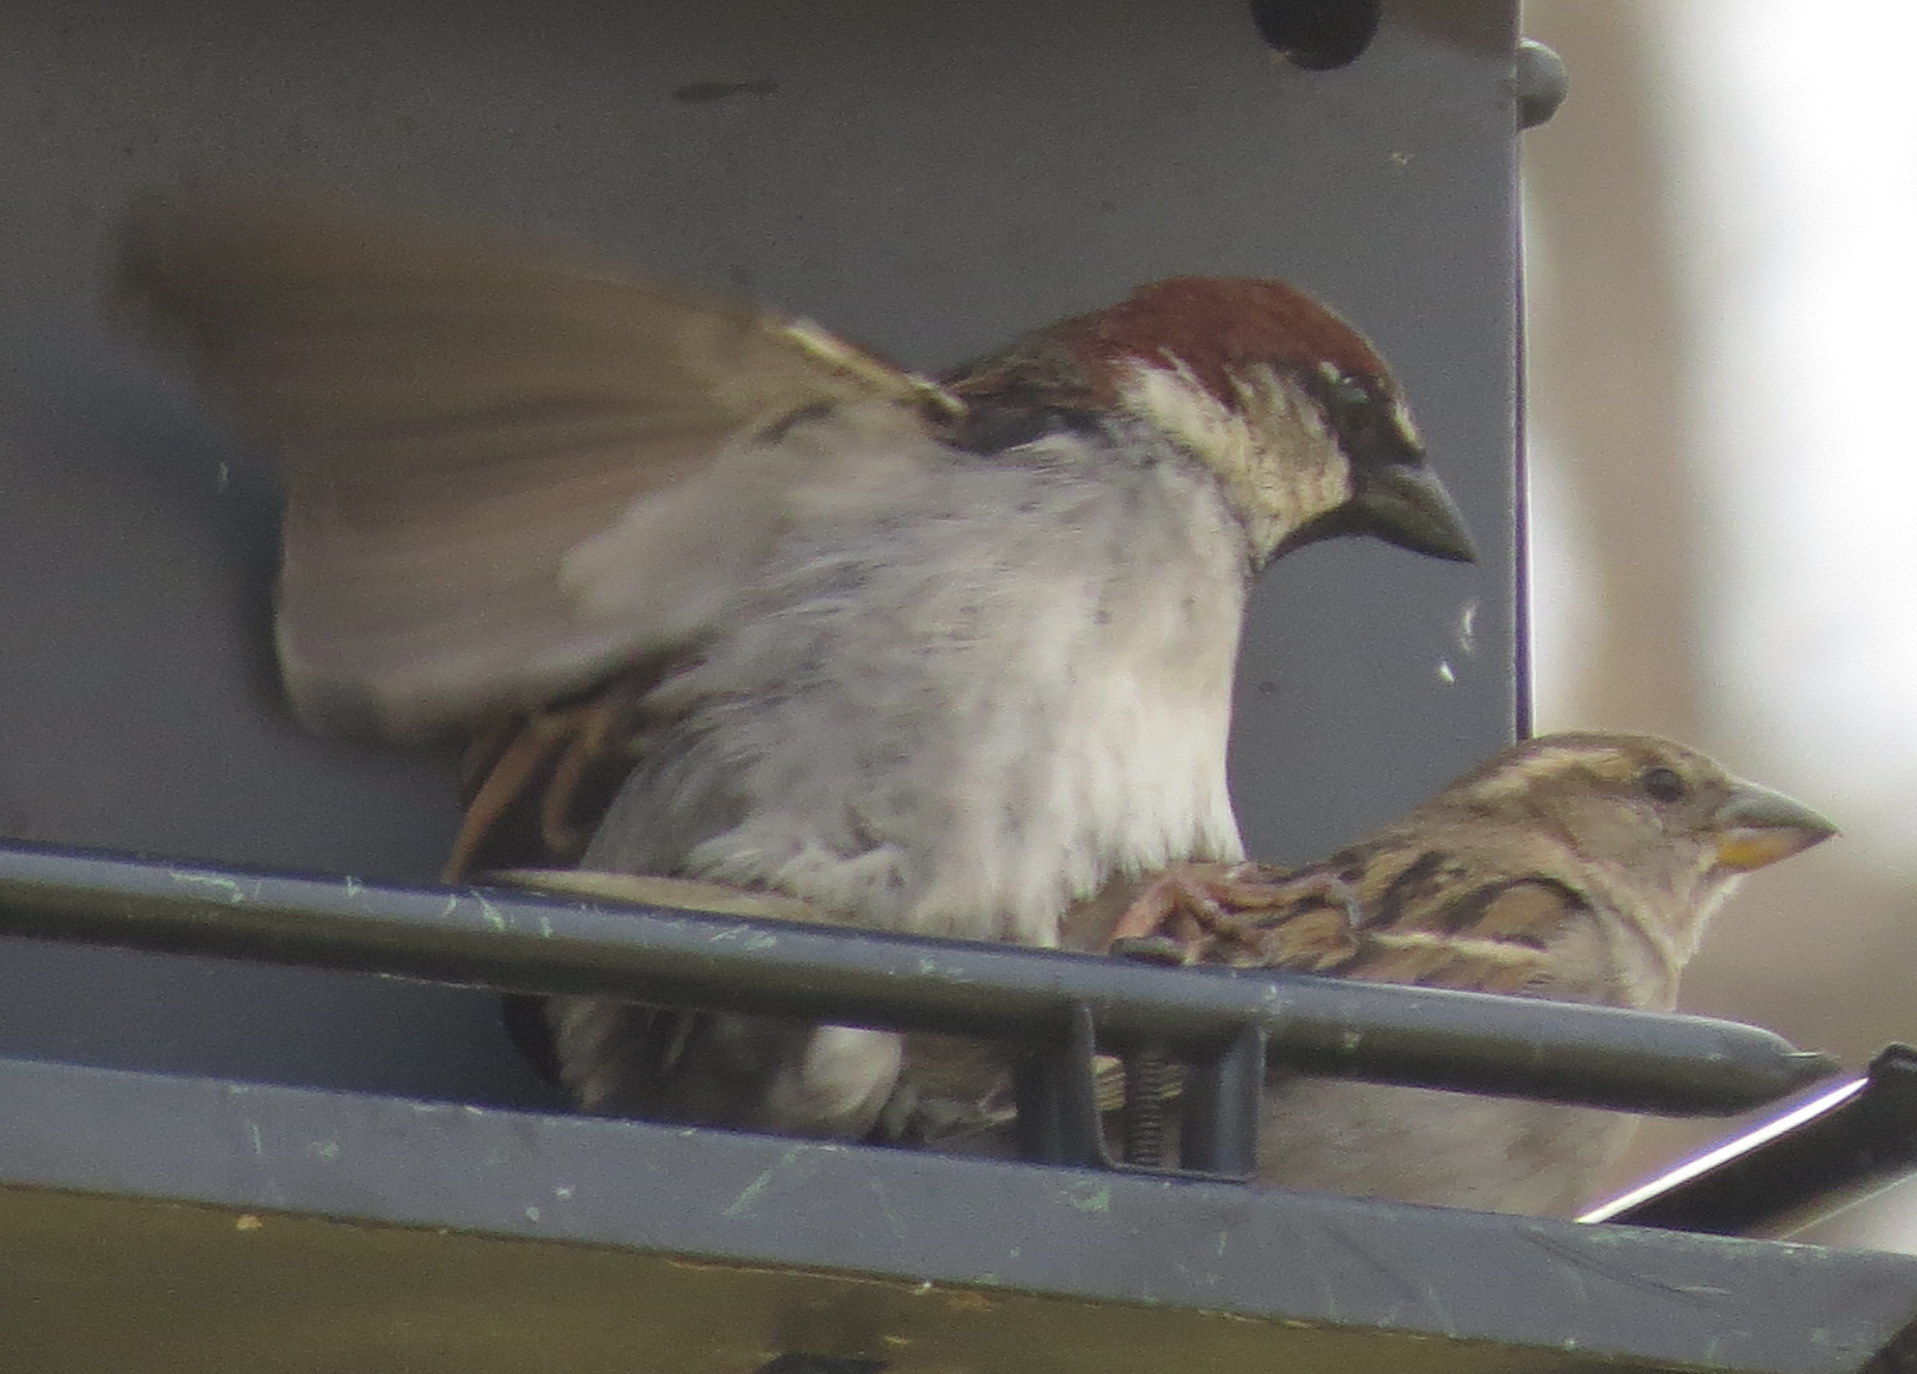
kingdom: Animalia
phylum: Chordata
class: Aves
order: Passeriformes
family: Passeridae
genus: Passer
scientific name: Passer domesticus
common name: House sparrow
